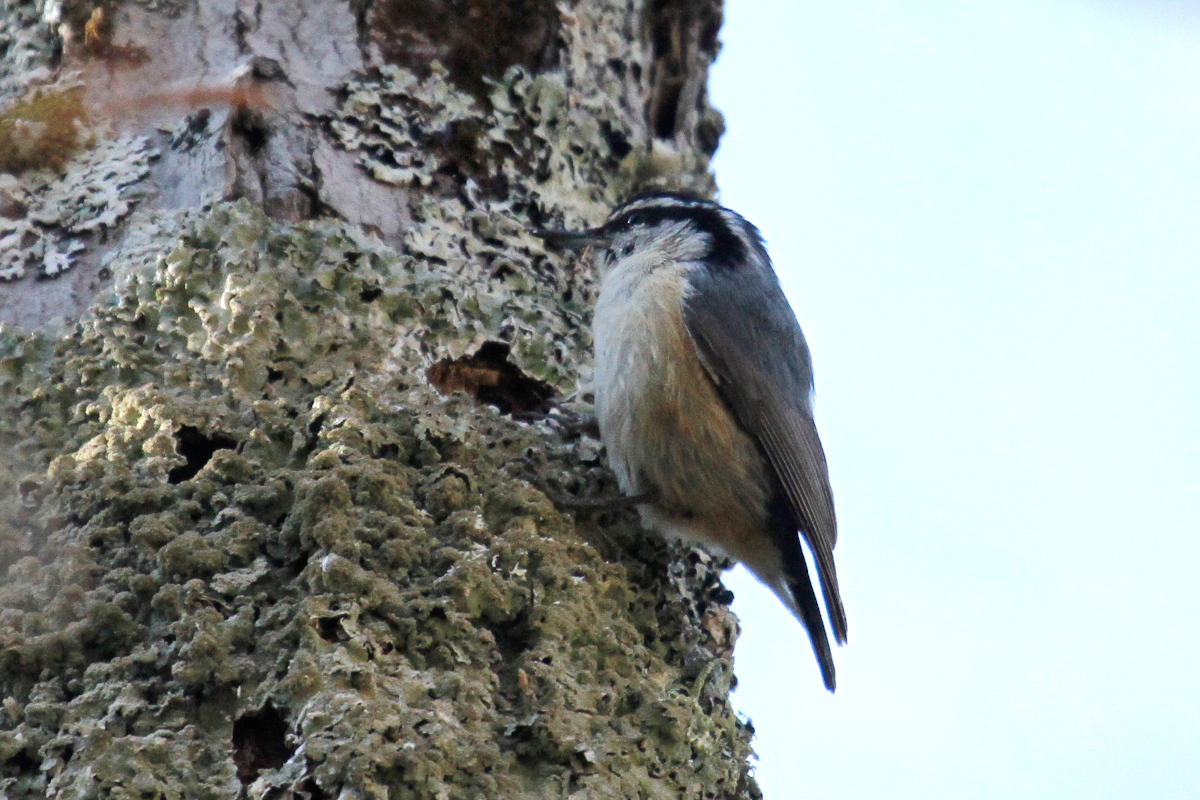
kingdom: Animalia
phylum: Chordata
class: Aves
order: Passeriformes
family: Sittidae
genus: Sitta
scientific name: Sitta canadensis
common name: Red-breasted nuthatch
